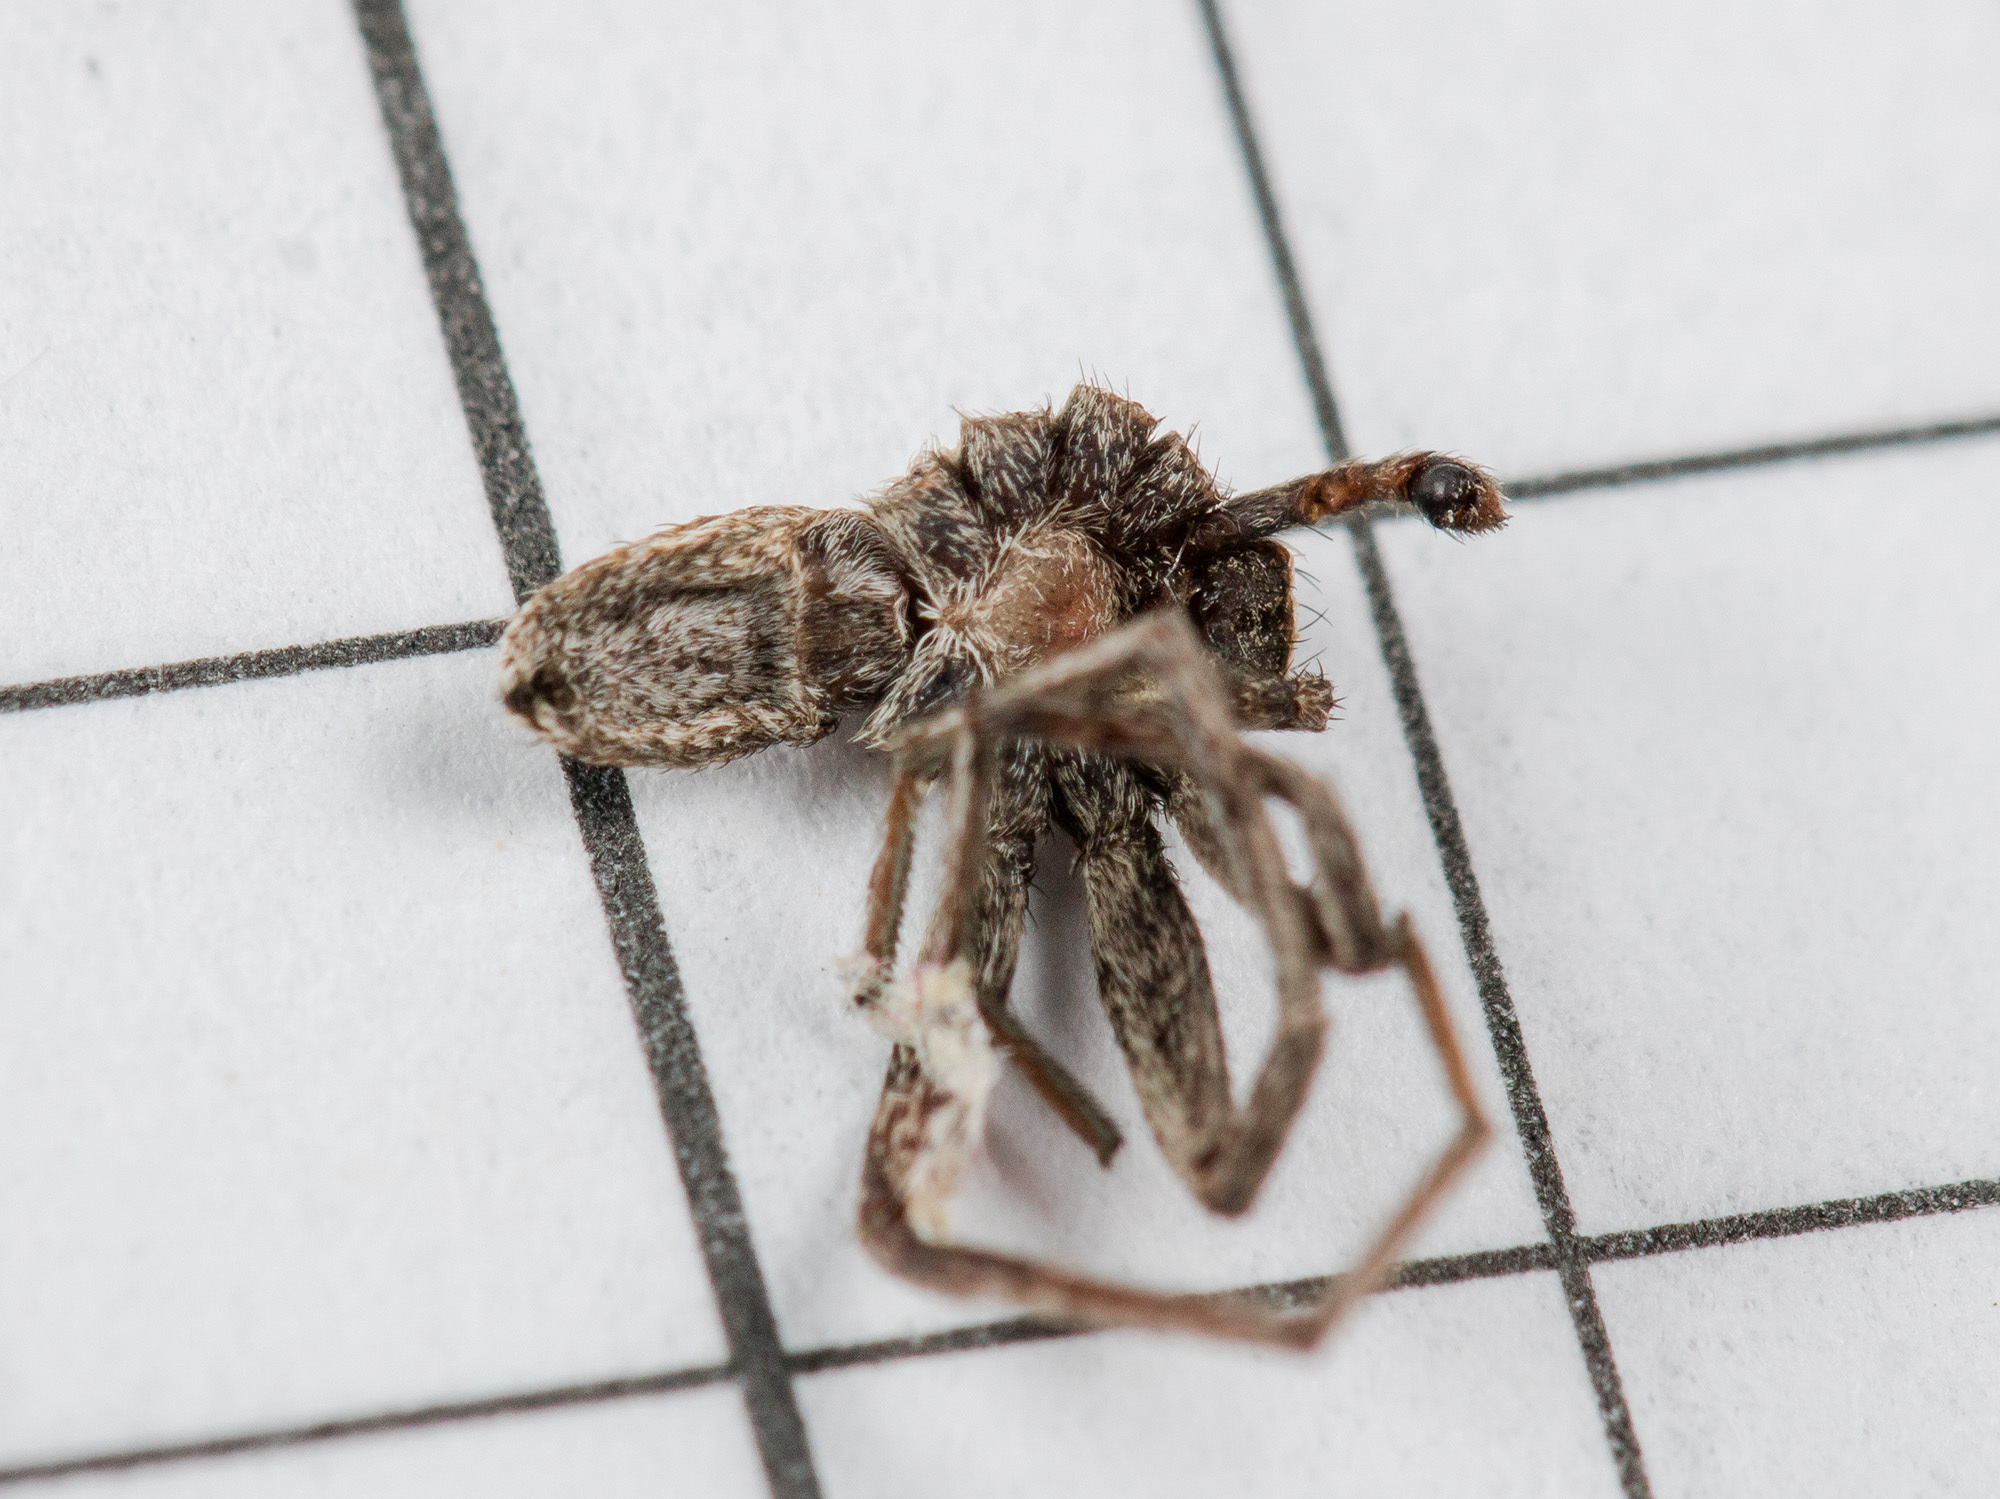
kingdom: Animalia
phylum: Arthropoda
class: Arachnida
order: Araneae
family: Philodromidae
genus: Thanatus
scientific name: Thanatus pictus
